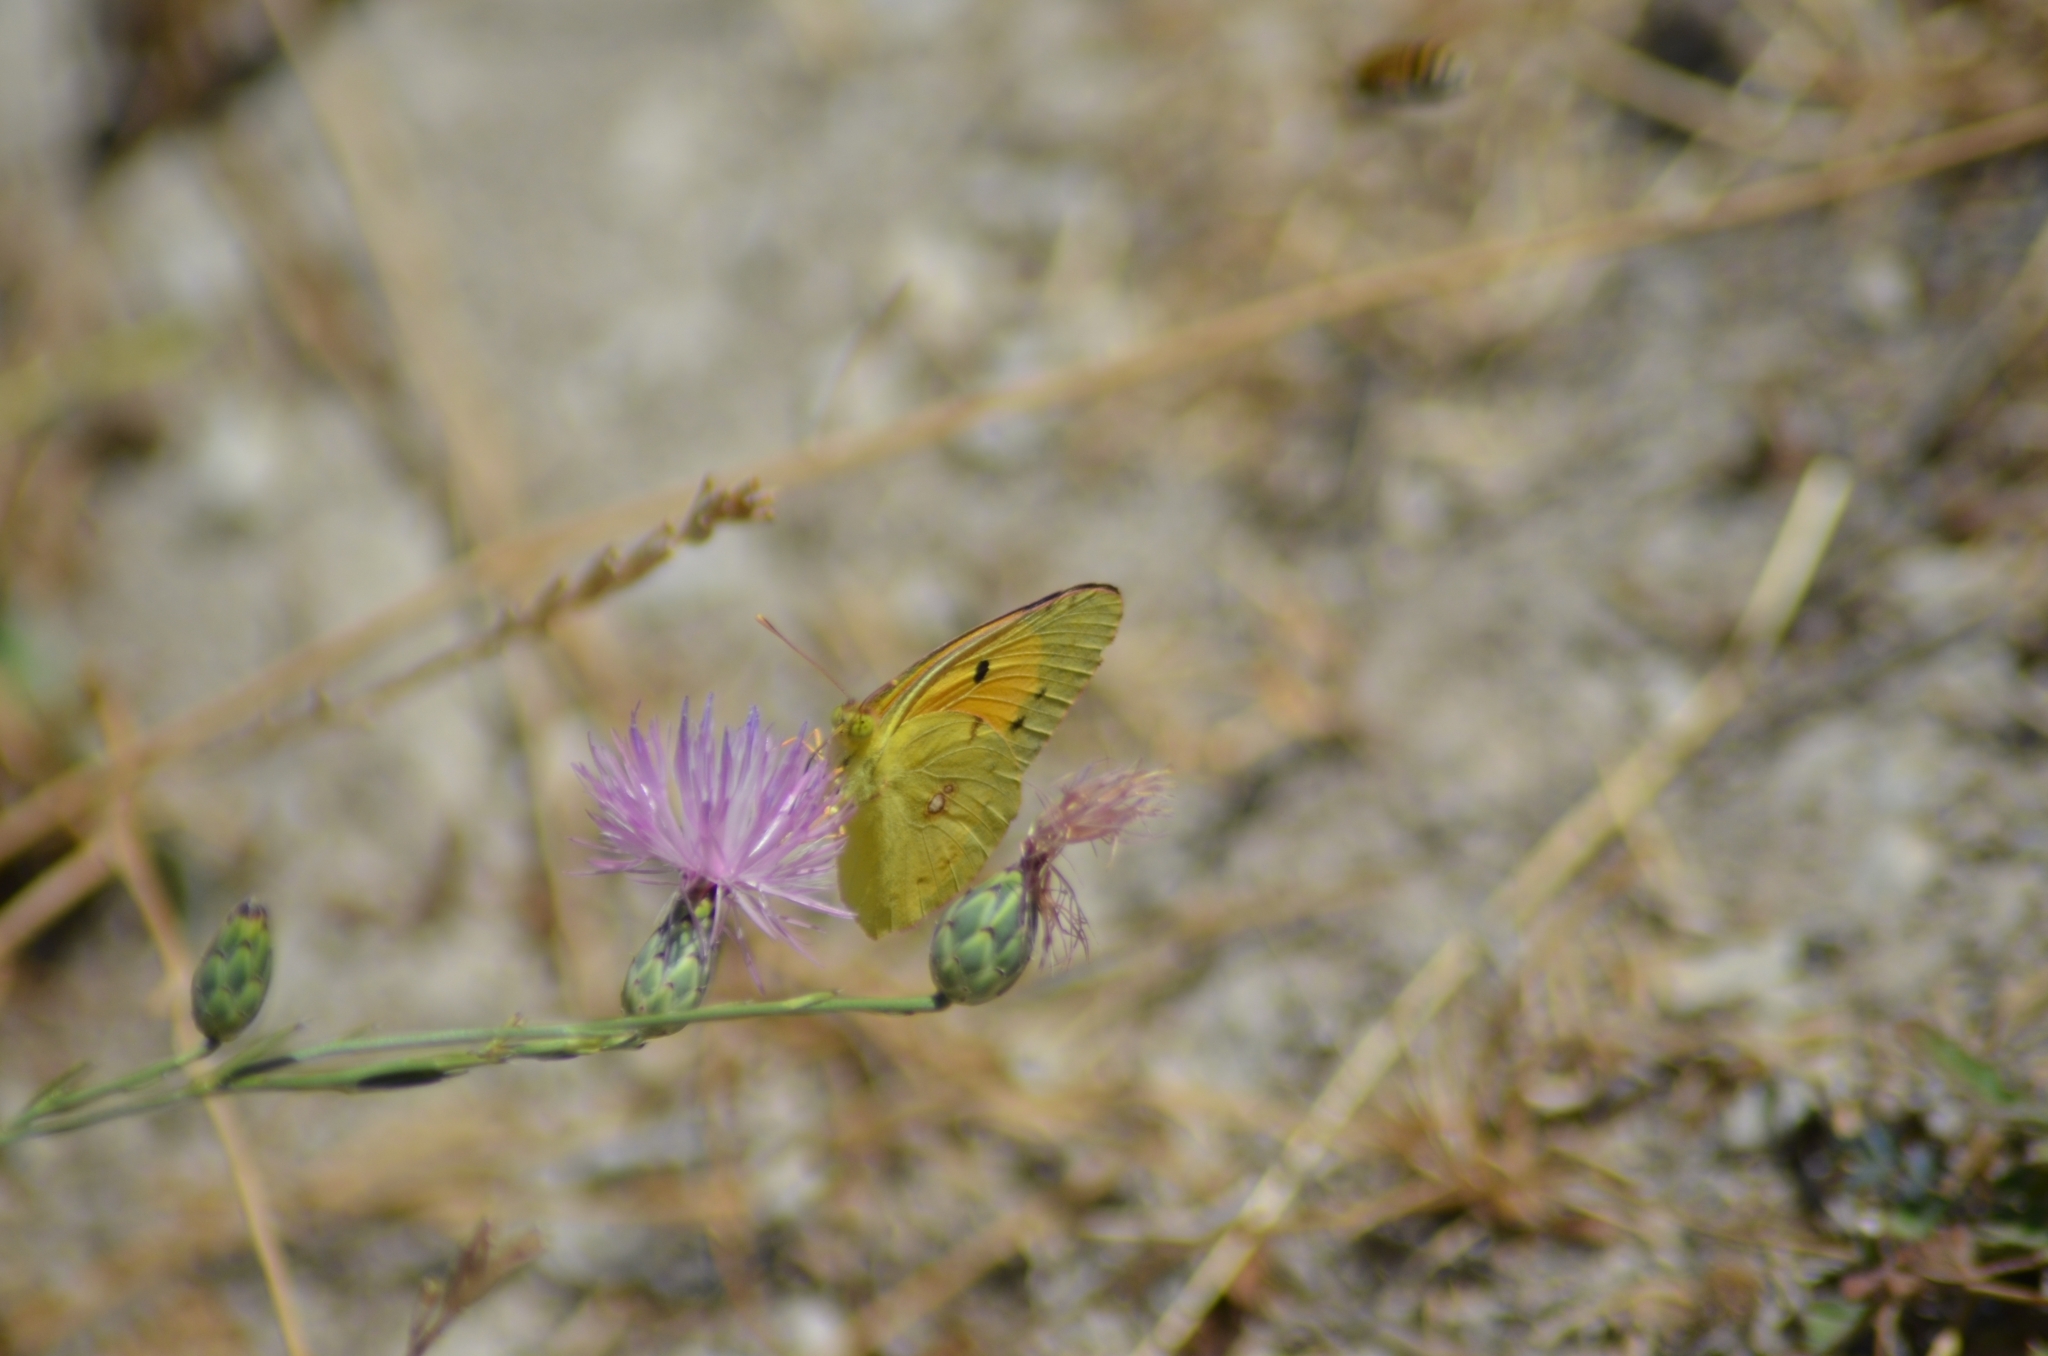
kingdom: Animalia
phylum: Arthropoda
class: Insecta
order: Lepidoptera
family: Pieridae
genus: Colias
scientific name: Colias croceus
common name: Clouded yellow
